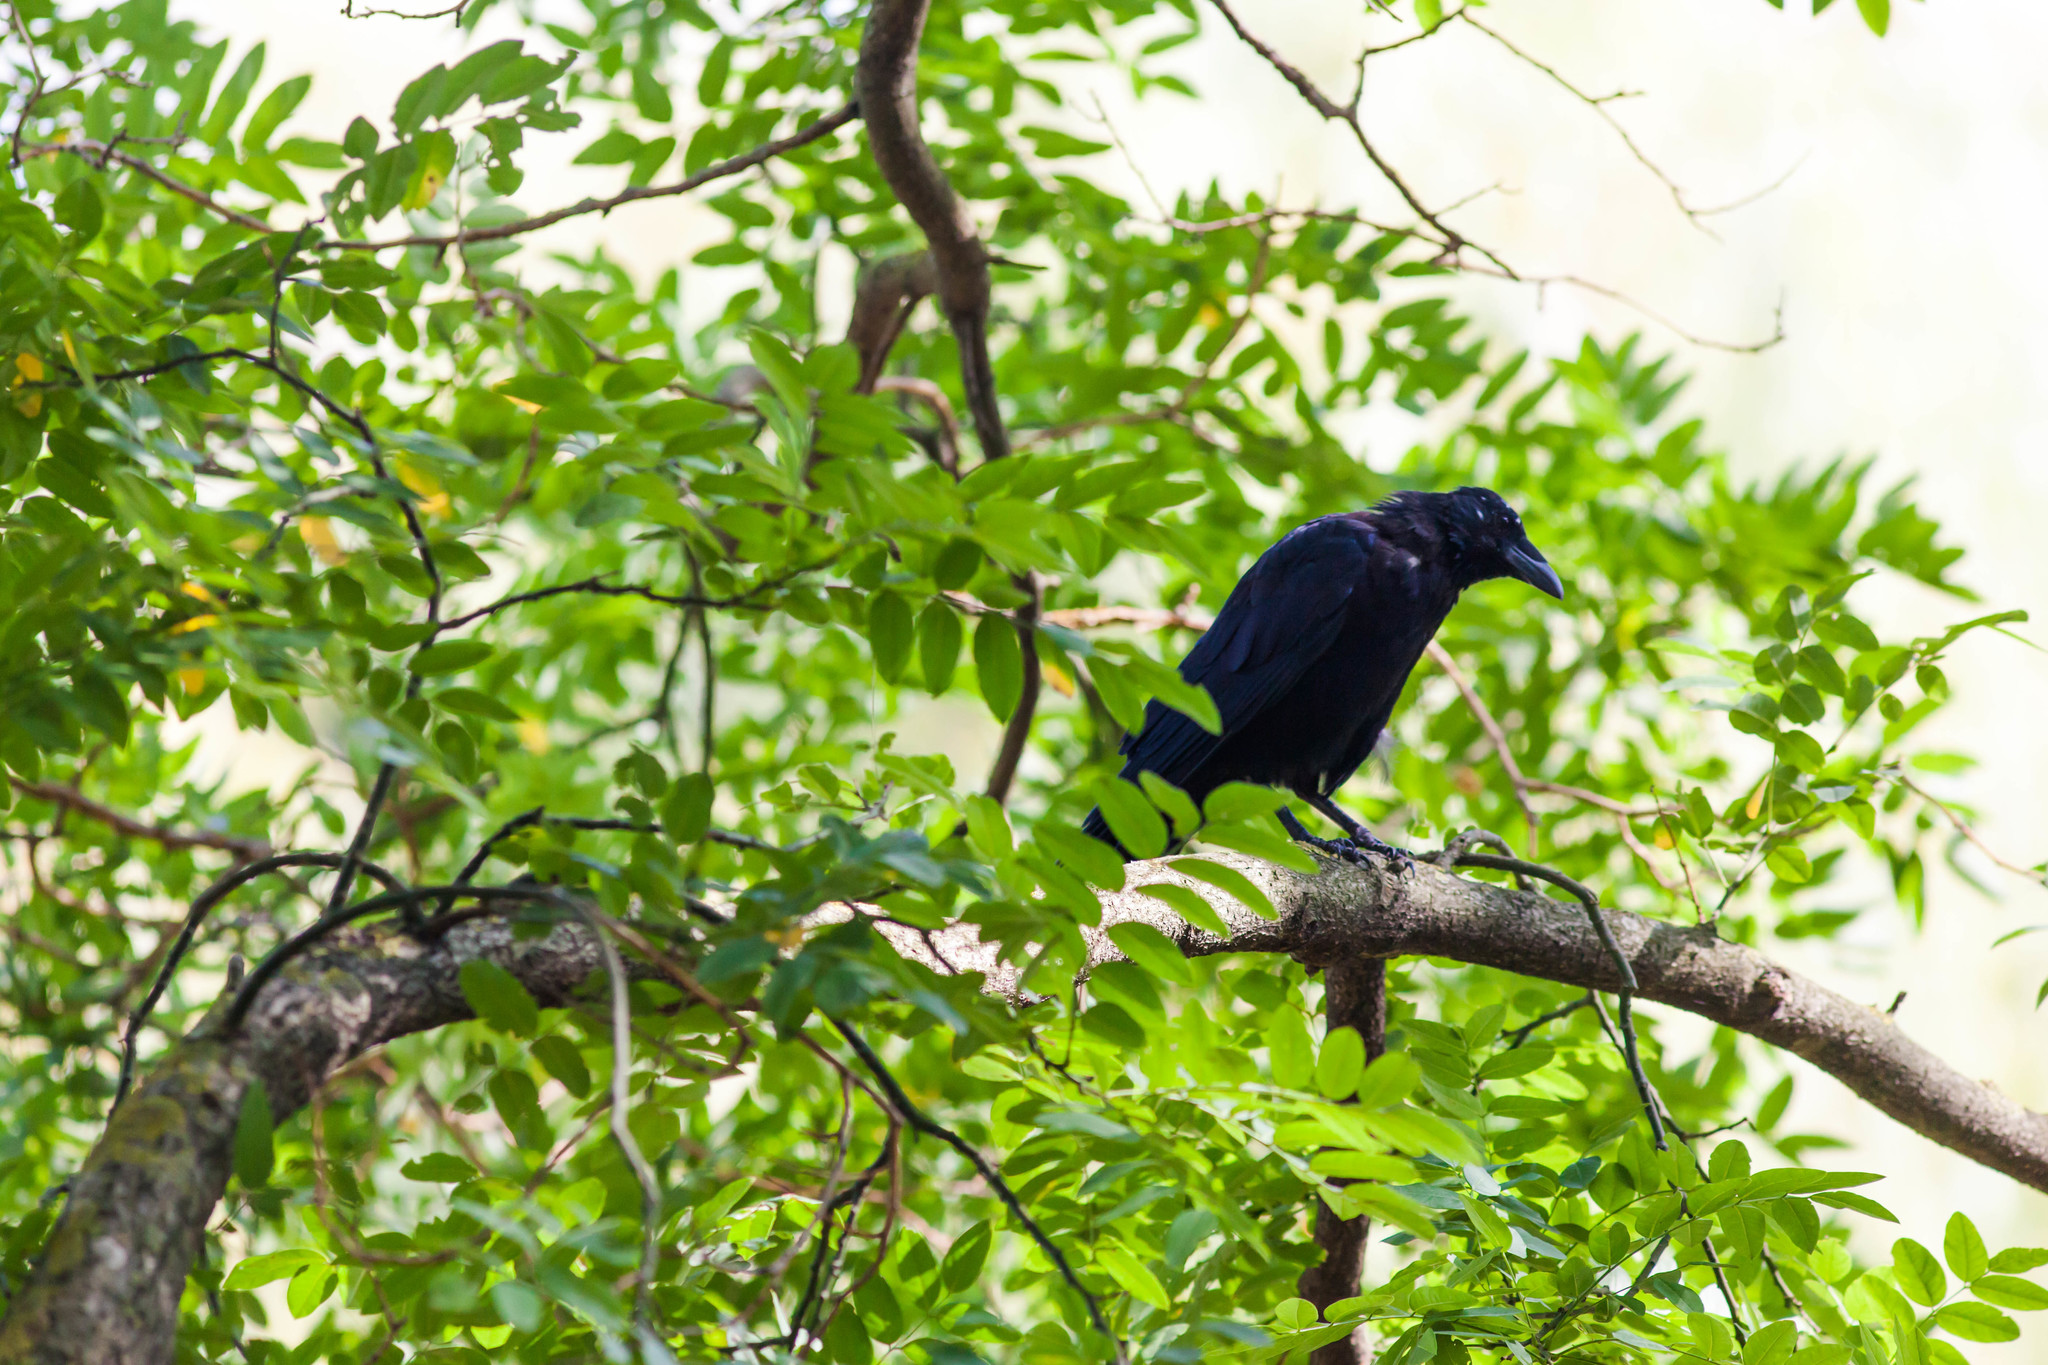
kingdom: Animalia
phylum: Chordata
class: Aves
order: Passeriformes
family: Corvidae
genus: Corvus
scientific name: Corvus corone
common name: Carrion crow
